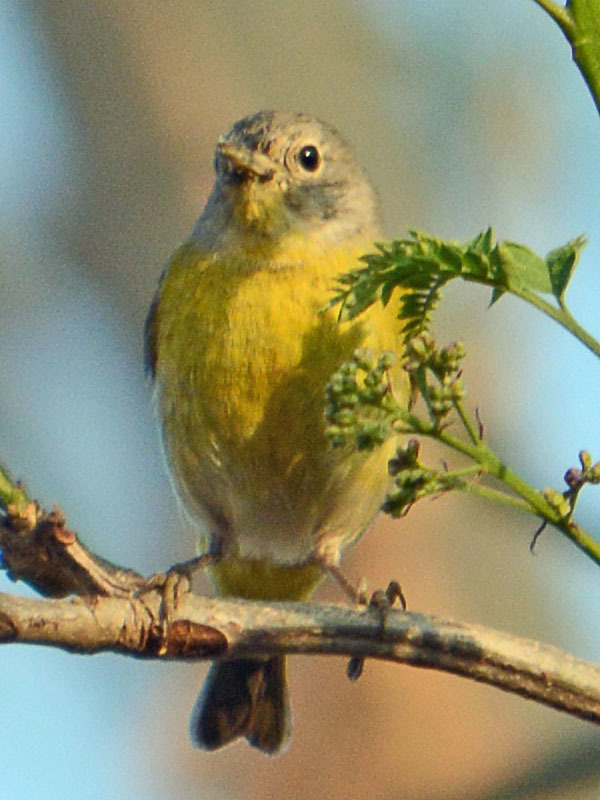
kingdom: Animalia
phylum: Chordata
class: Aves
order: Passeriformes
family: Parulidae
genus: Leiothlypis
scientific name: Leiothlypis ruficapilla
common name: Nashville warbler
